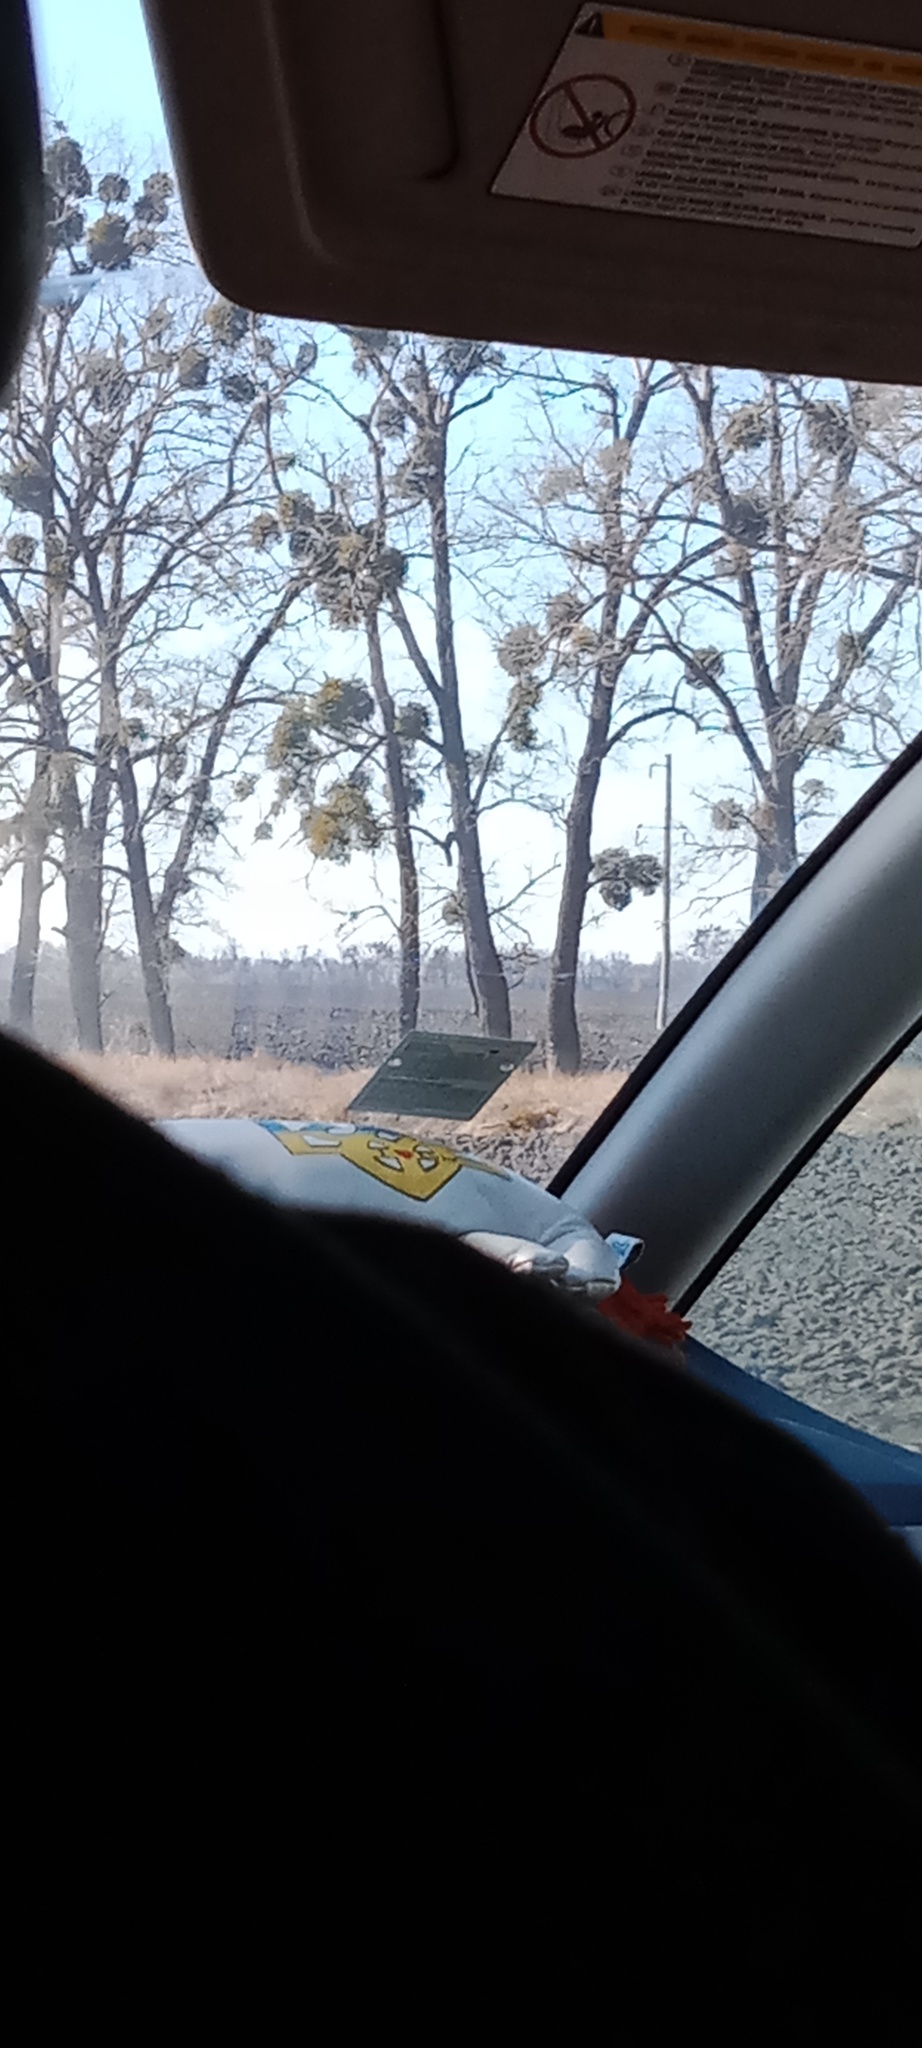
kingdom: Plantae
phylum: Tracheophyta
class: Magnoliopsida
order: Santalales
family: Viscaceae
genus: Viscum
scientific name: Viscum album
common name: Mistletoe
